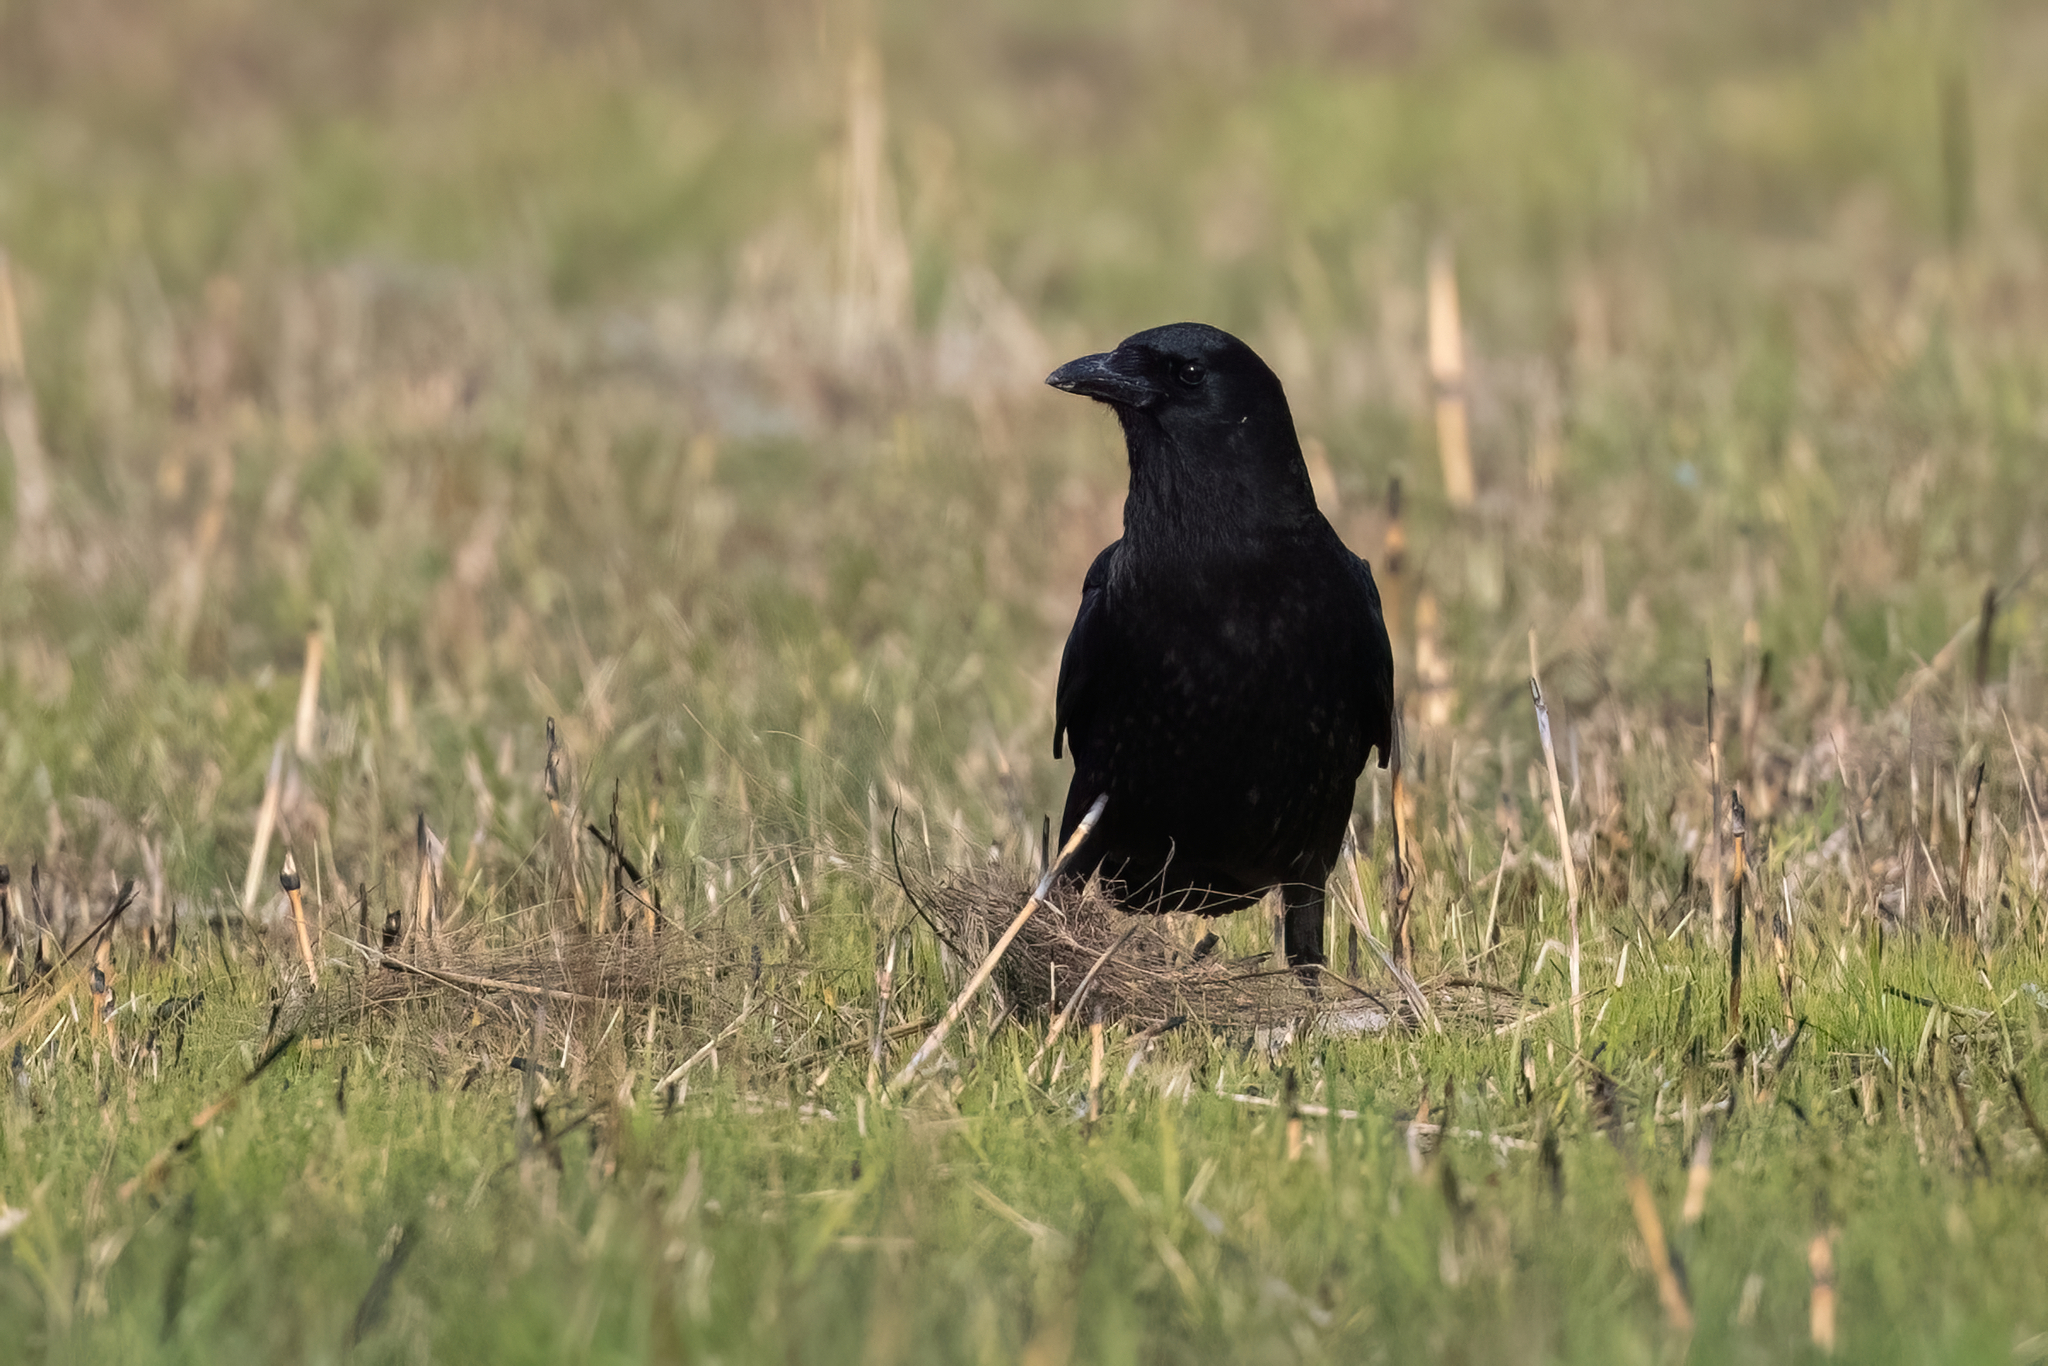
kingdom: Animalia
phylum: Chordata
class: Aves
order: Passeriformes
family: Corvidae
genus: Corvus
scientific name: Corvus brachyrhynchos
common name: American crow
